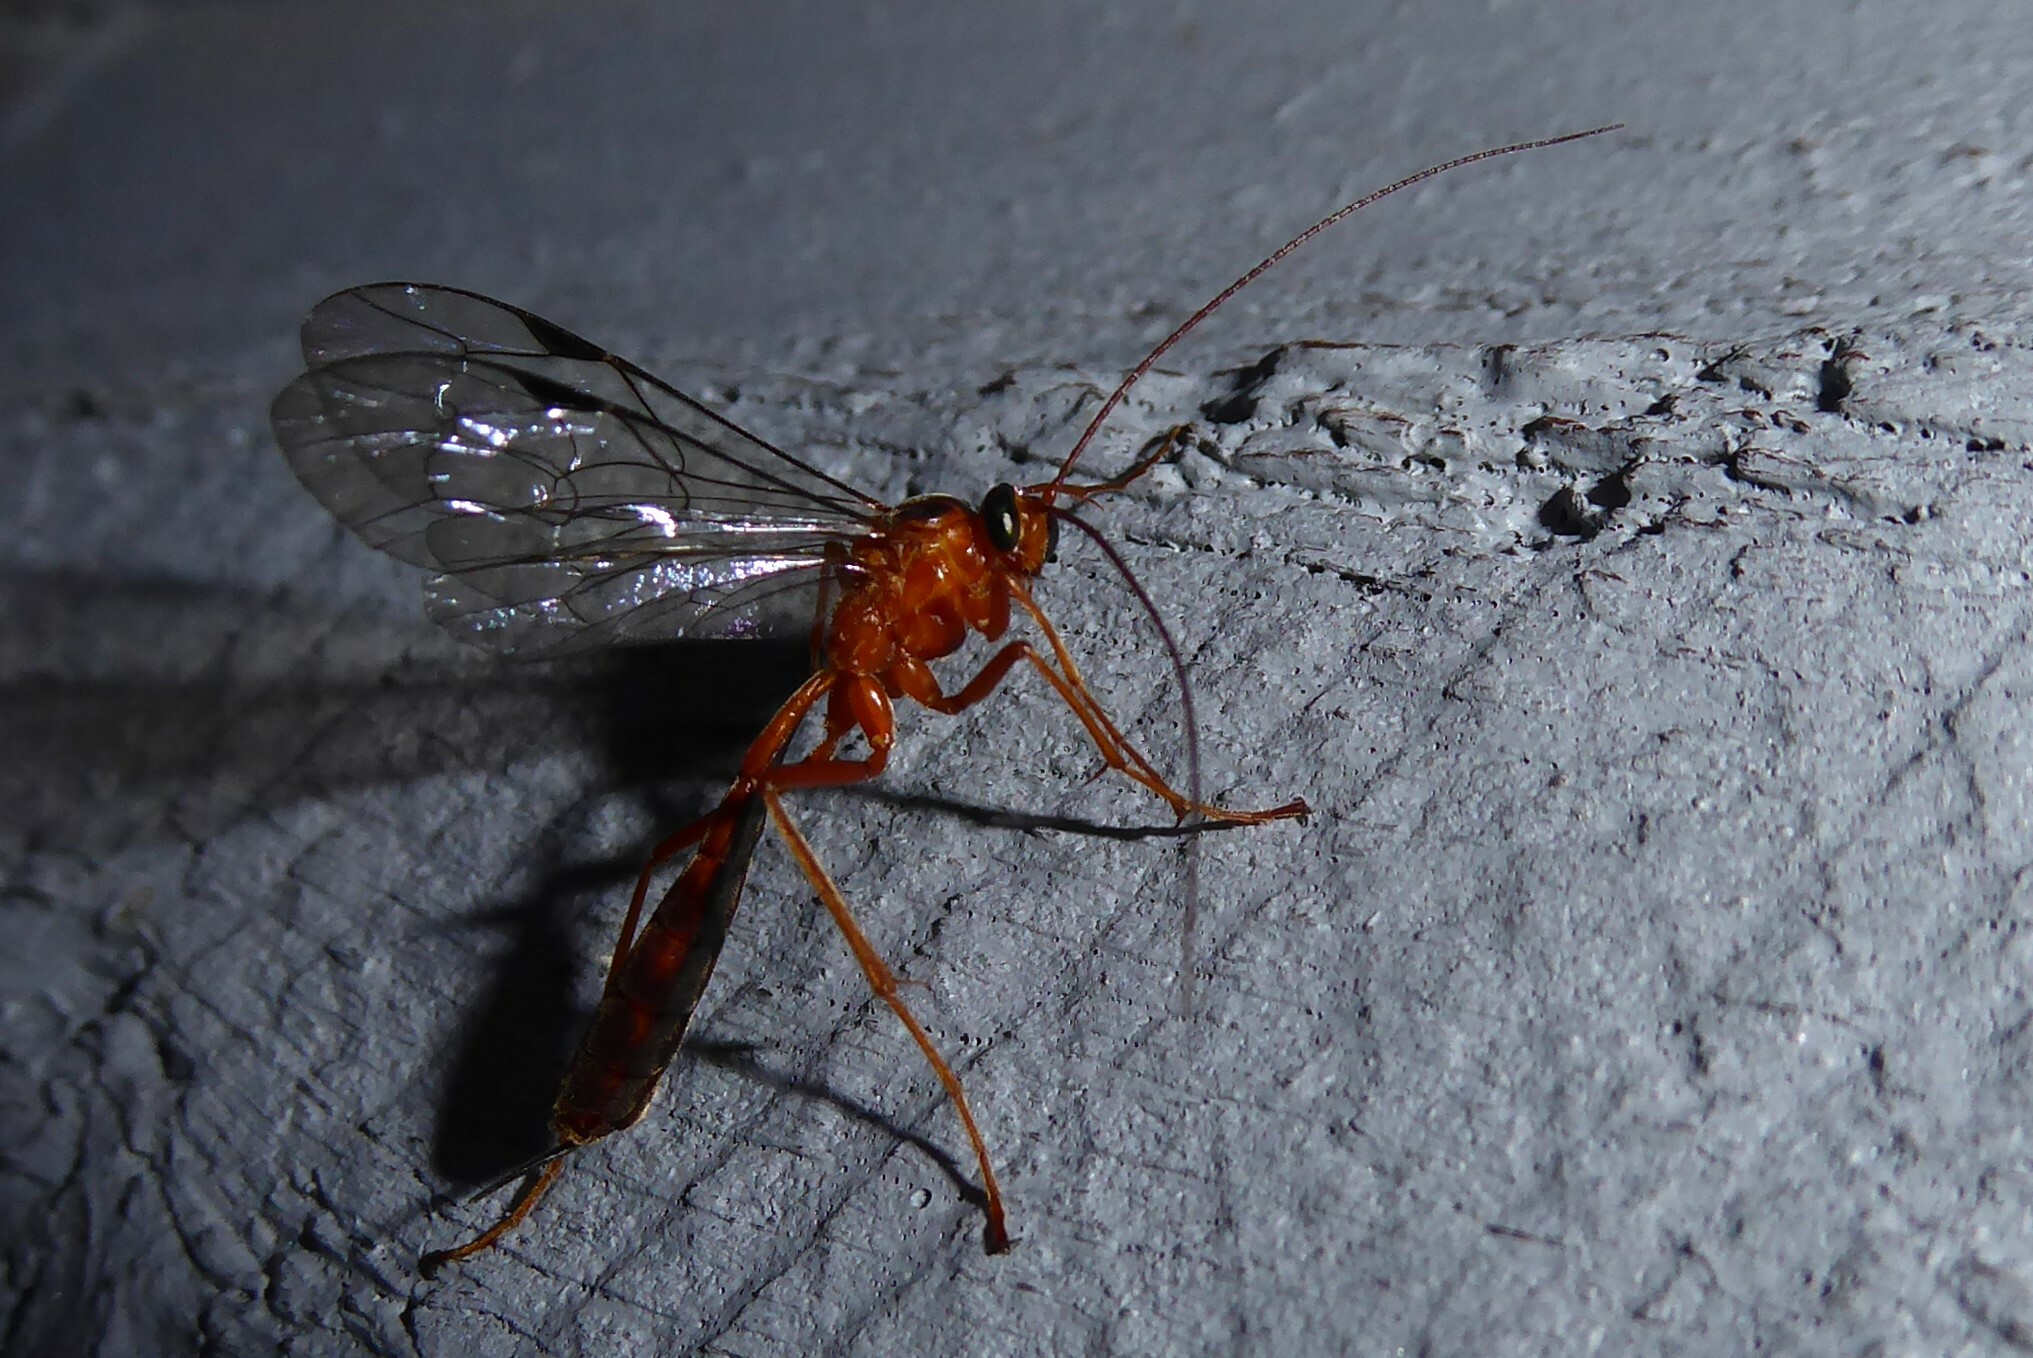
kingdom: Animalia
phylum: Arthropoda
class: Insecta
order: Hymenoptera
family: Ichneumonidae
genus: Netelia
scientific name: Netelia ephippiata
